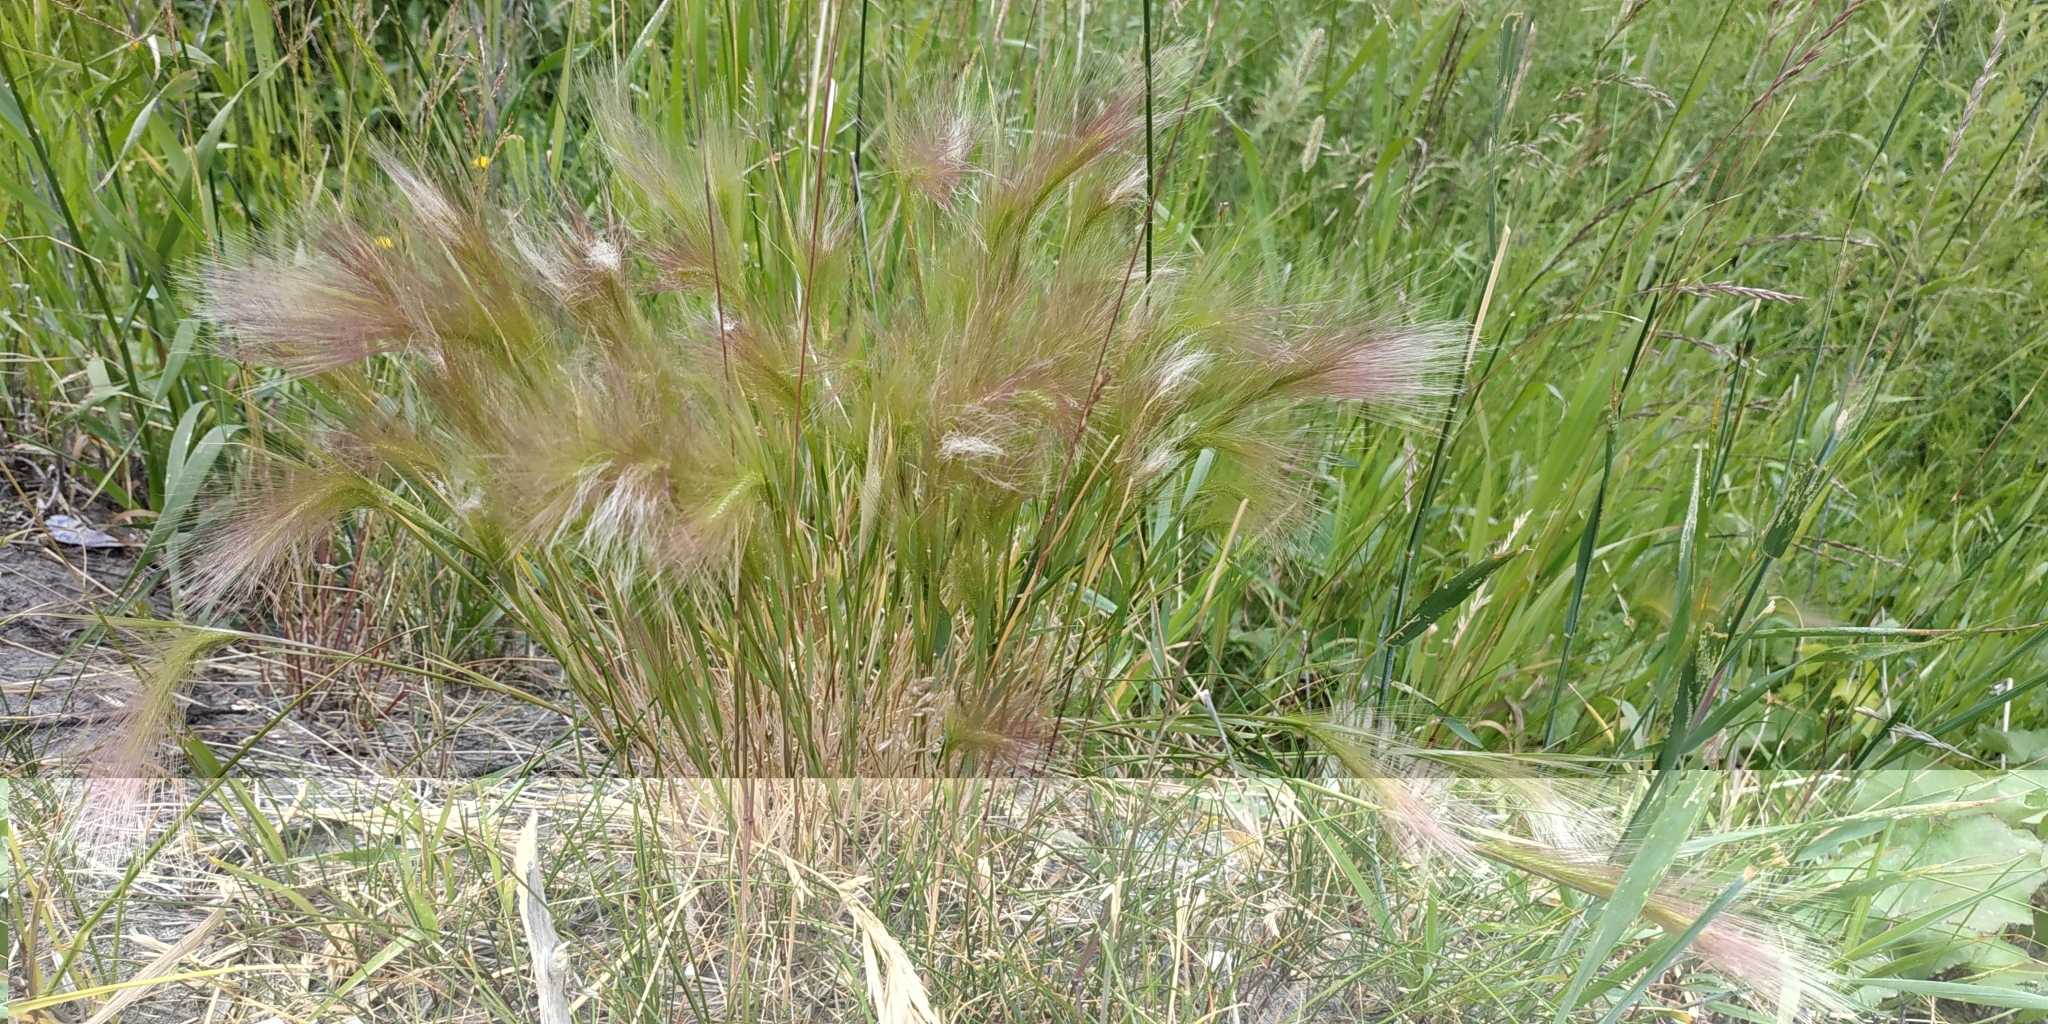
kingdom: Plantae
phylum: Tracheophyta
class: Liliopsida
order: Poales
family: Poaceae
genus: Hordeum
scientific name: Hordeum jubatum
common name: Foxtail barley
